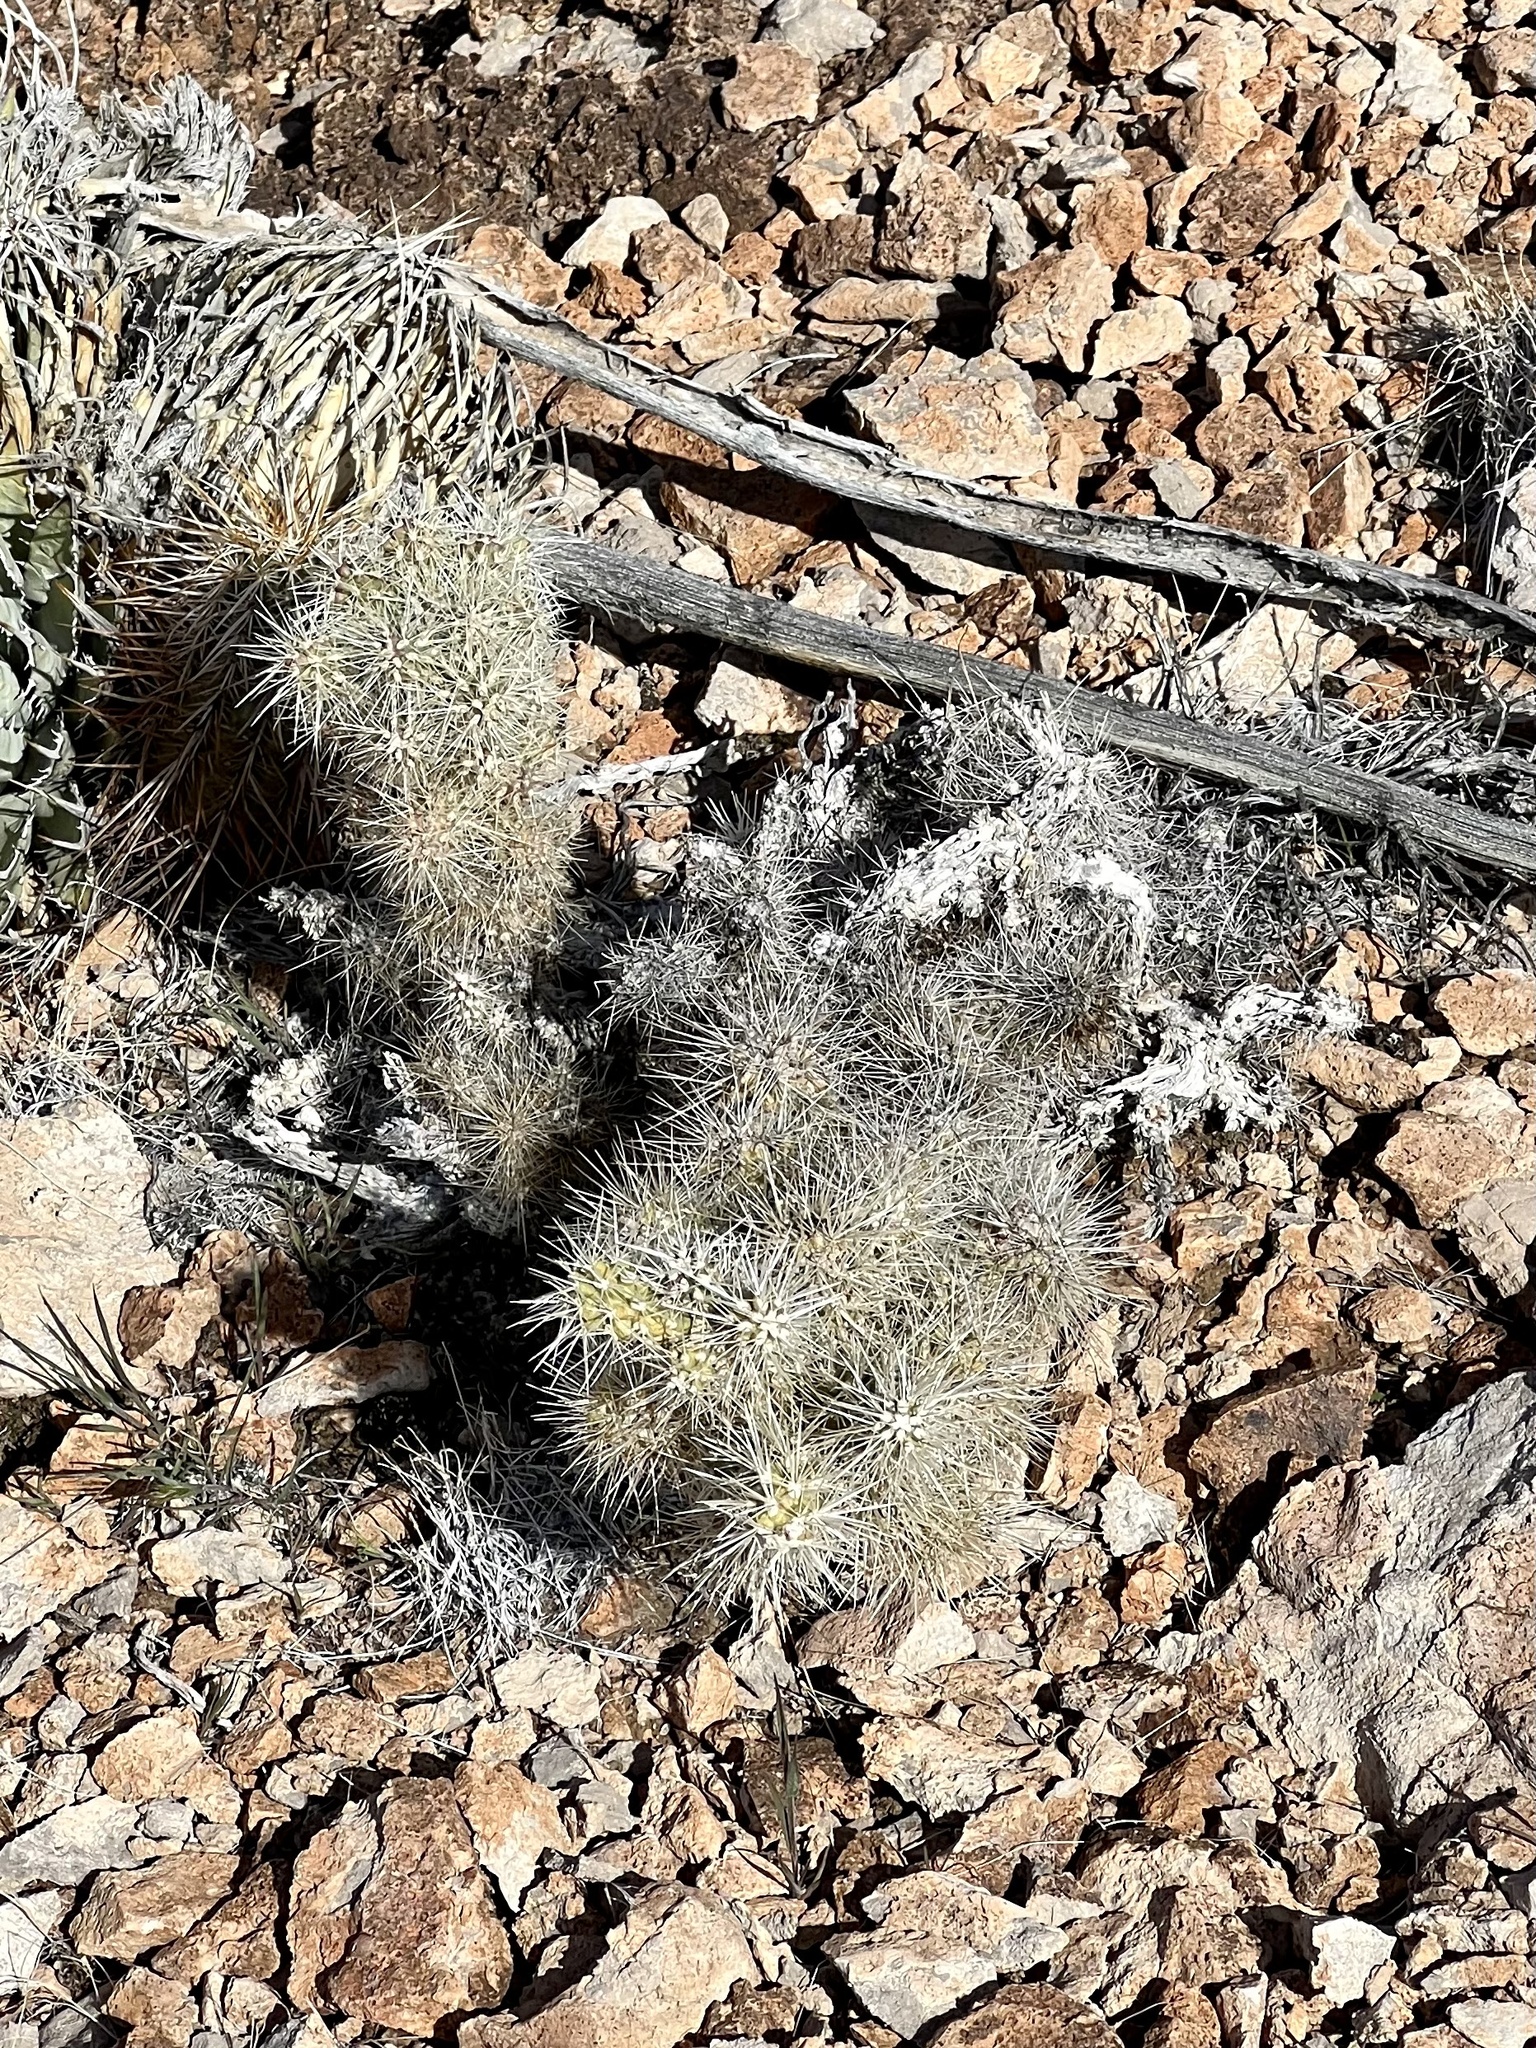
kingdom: Plantae
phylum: Tracheophyta
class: Magnoliopsida
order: Caryophyllales
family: Cactaceae
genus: Cylindropuntia
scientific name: Cylindropuntia multigeniculata
